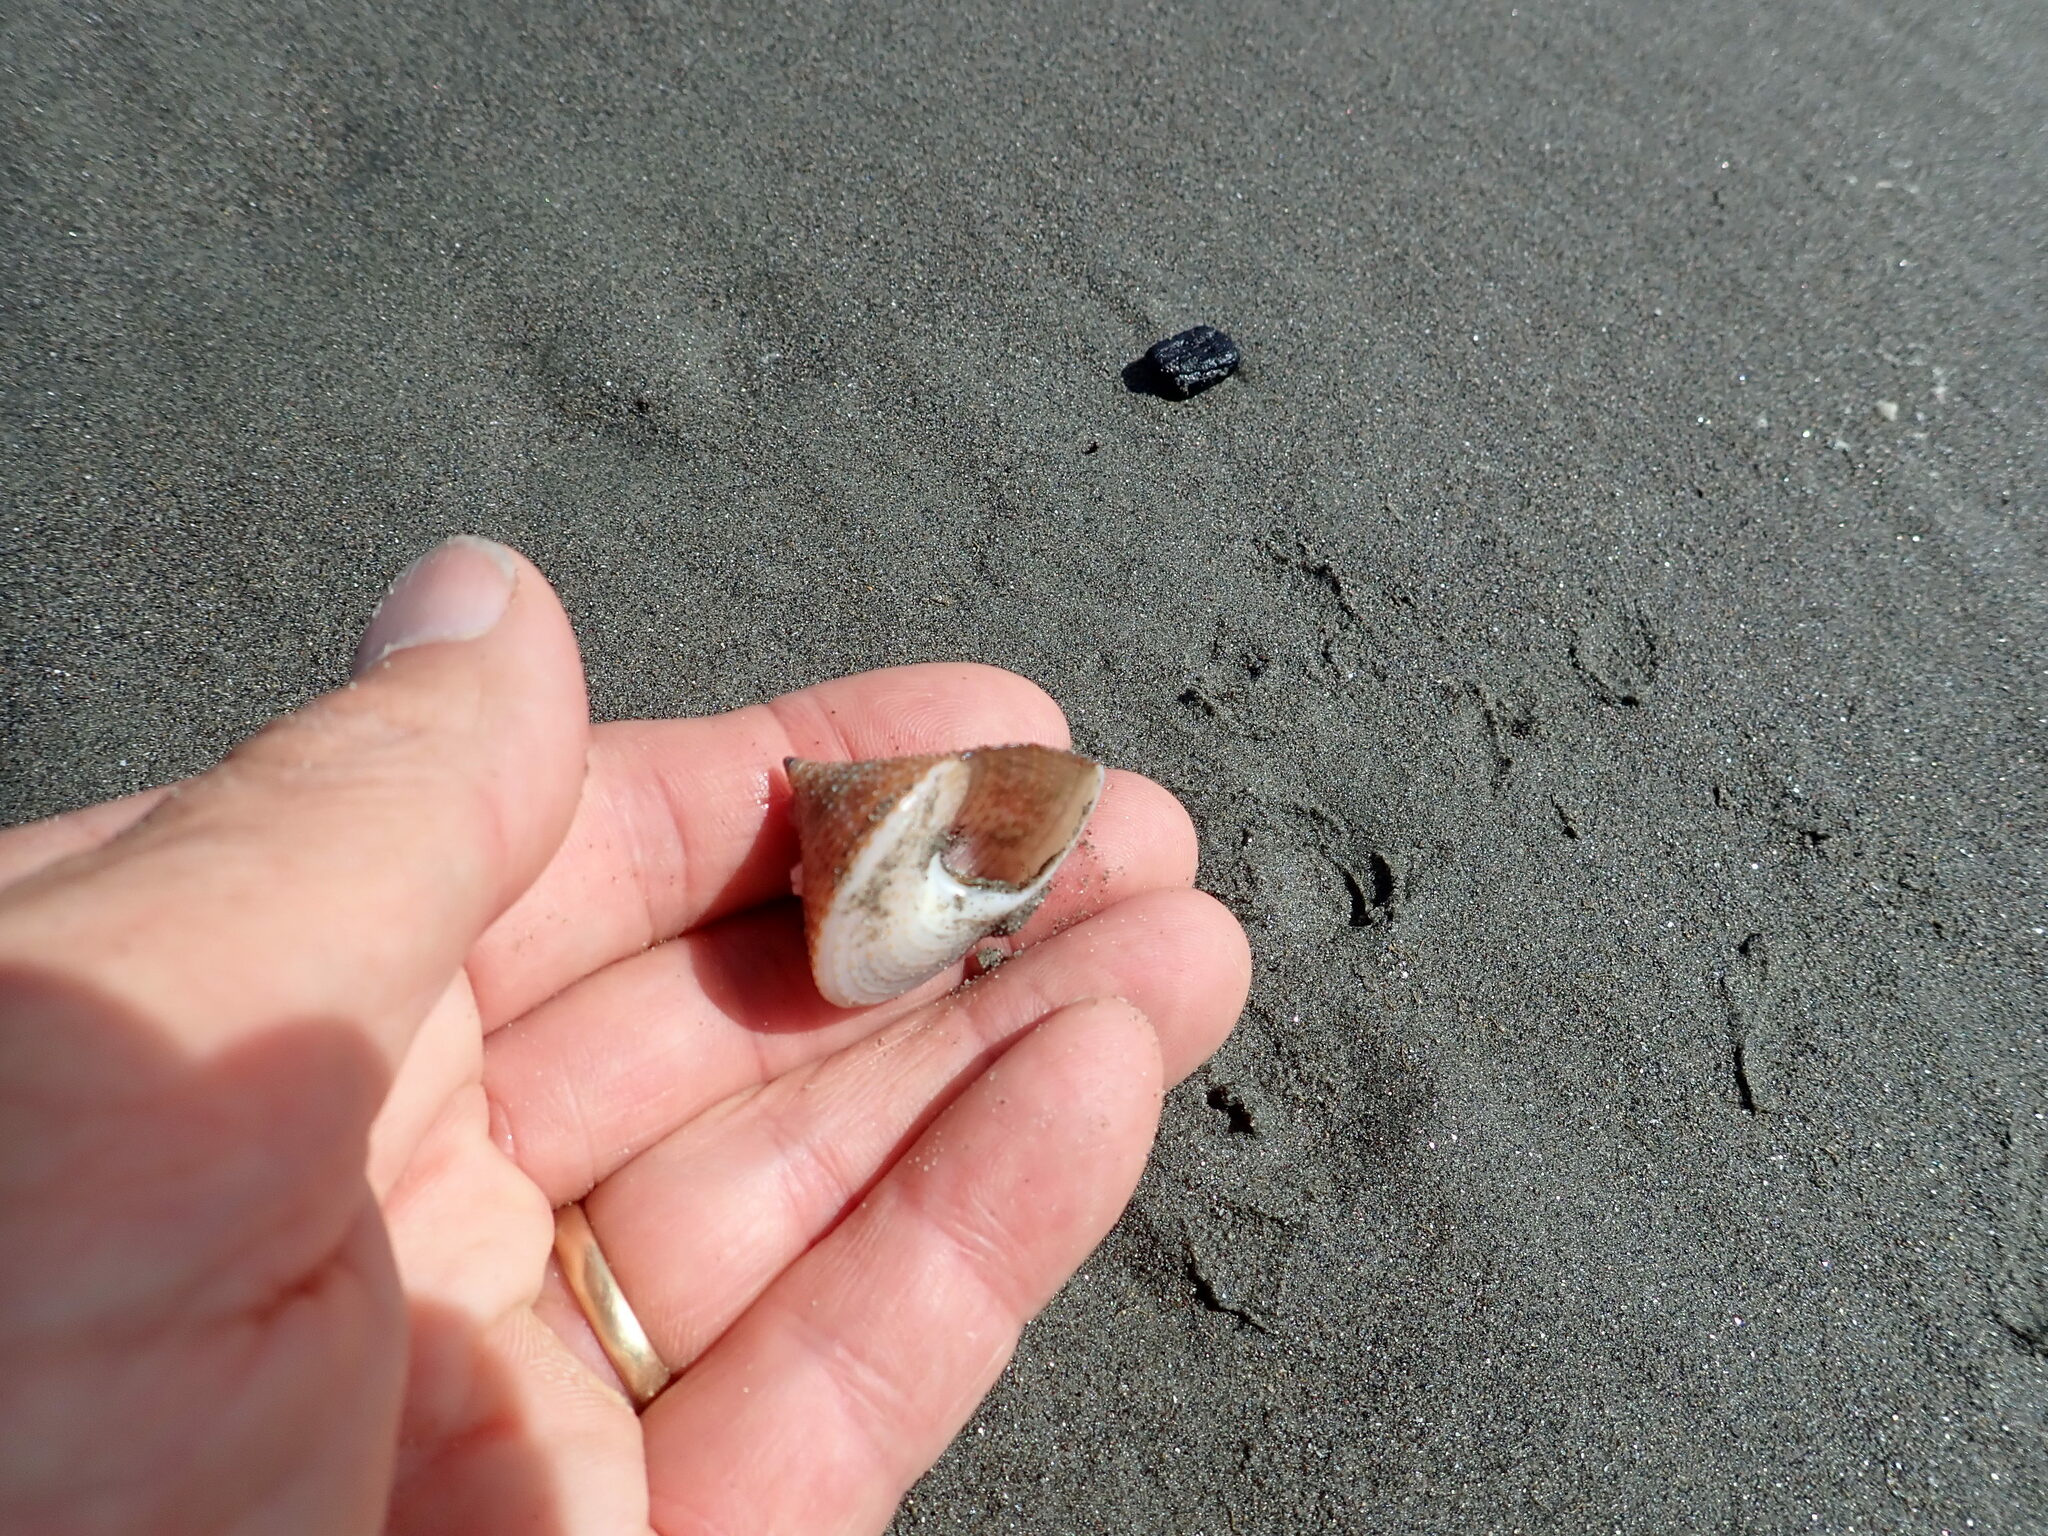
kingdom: Animalia
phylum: Mollusca
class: Gastropoda
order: Trochida
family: Calliostomatidae
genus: Maurea
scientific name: Maurea selecta
